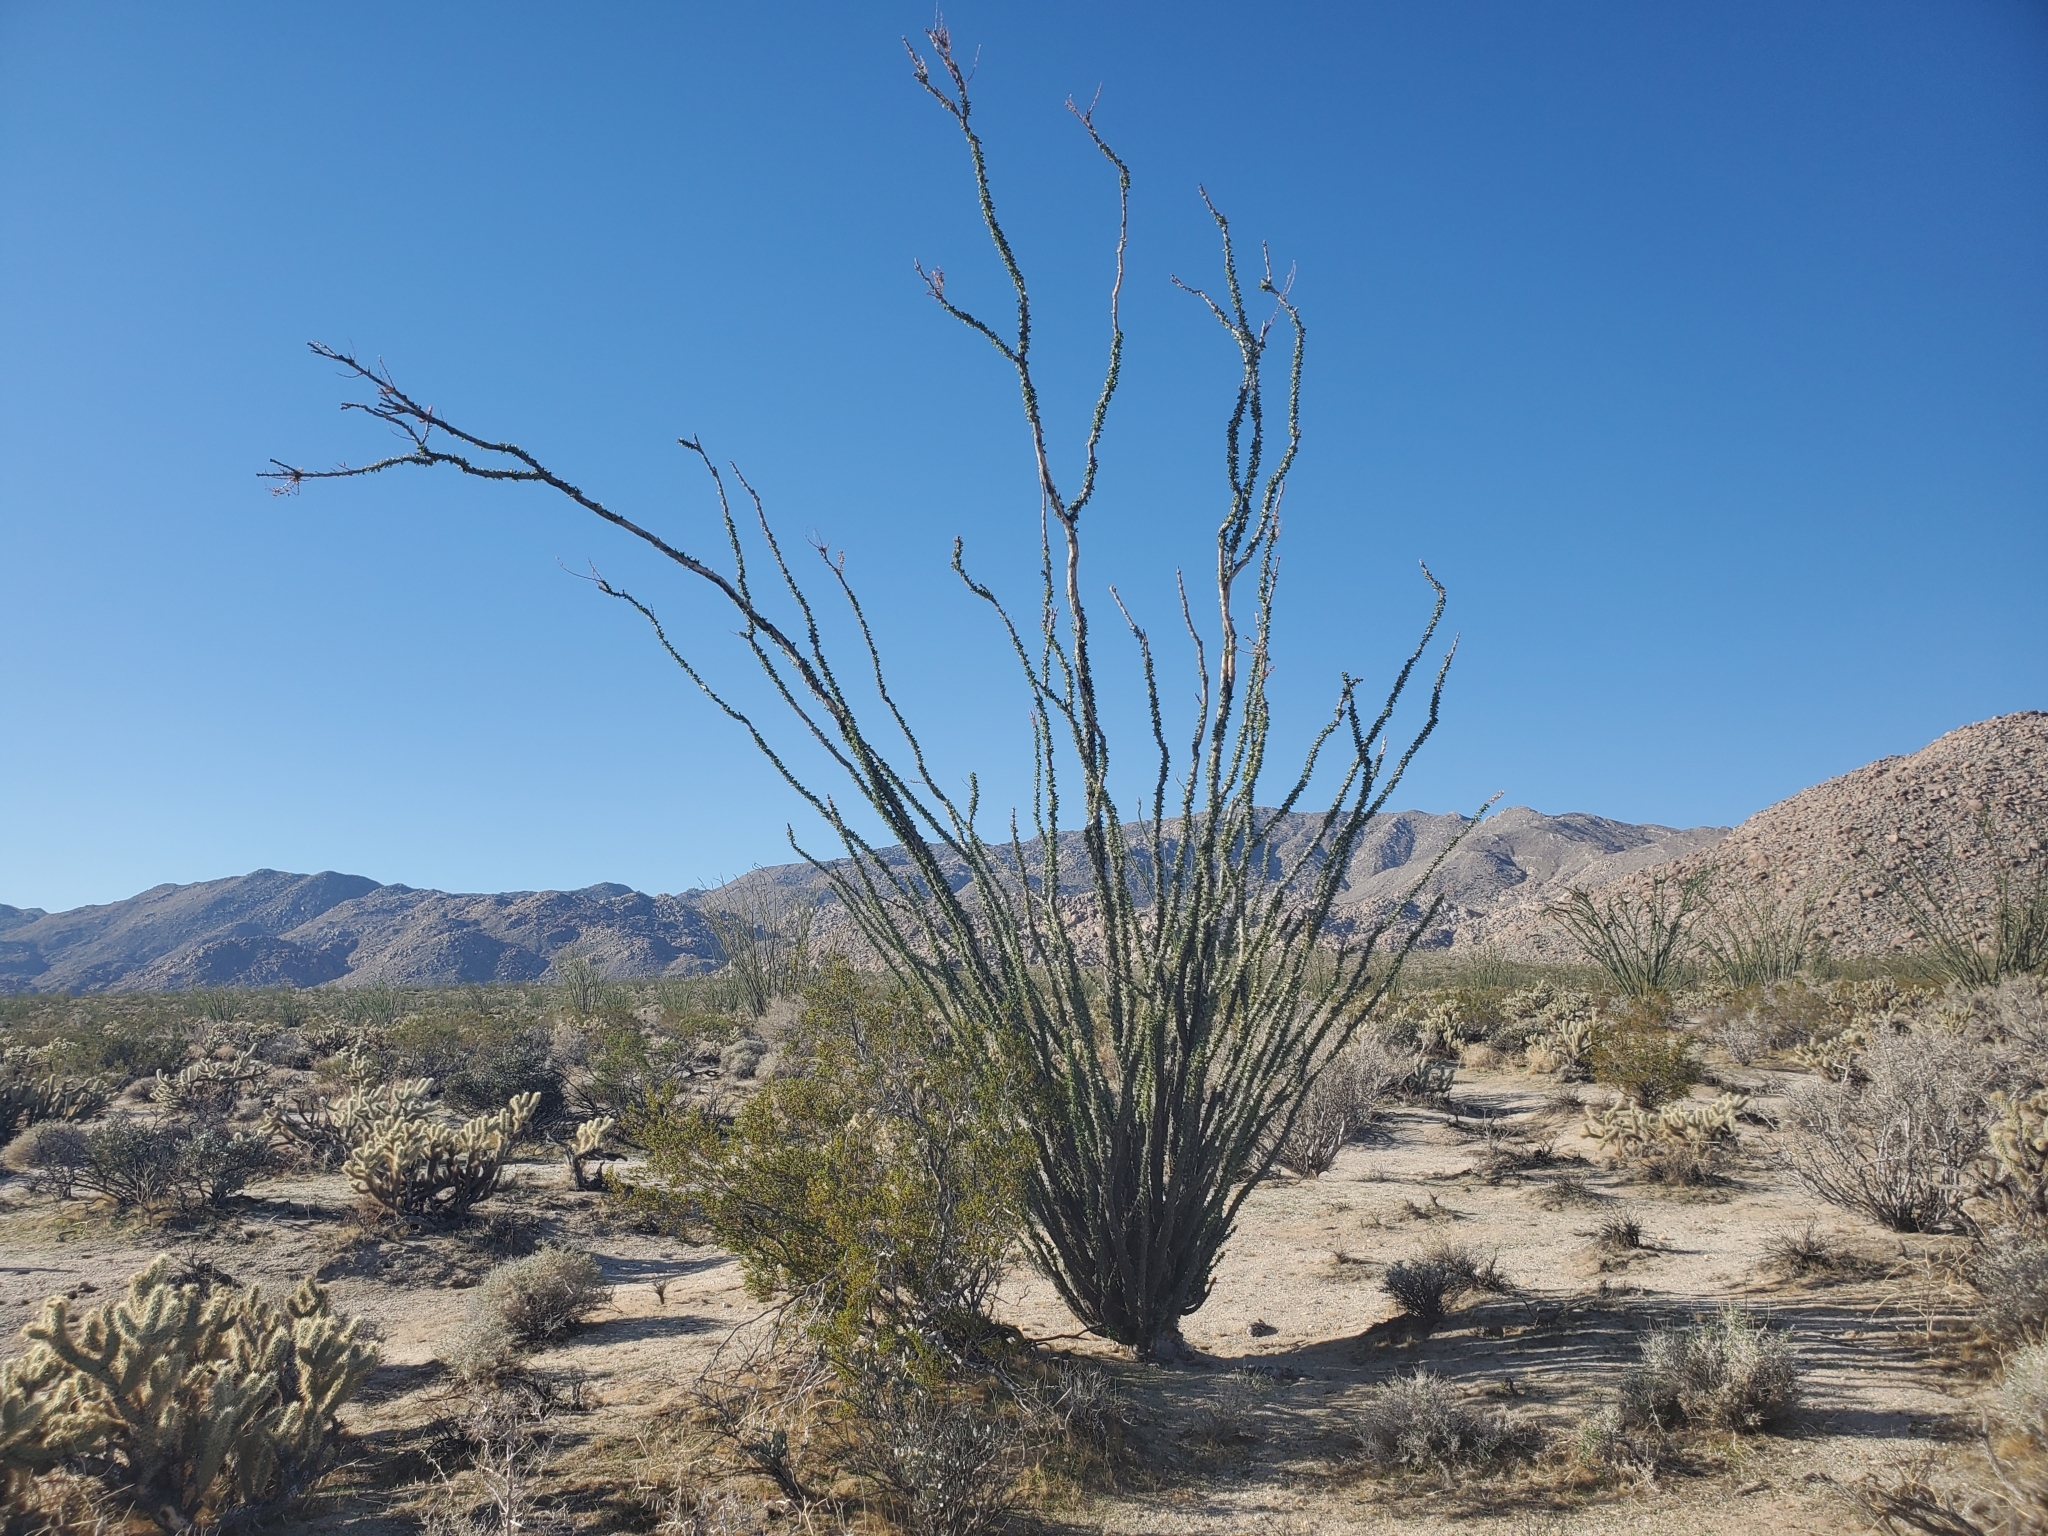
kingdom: Plantae
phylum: Tracheophyta
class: Magnoliopsida
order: Ericales
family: Fouquieriaceae
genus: Fouquieria
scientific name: Fouquieria splendens
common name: Vine-cactus
